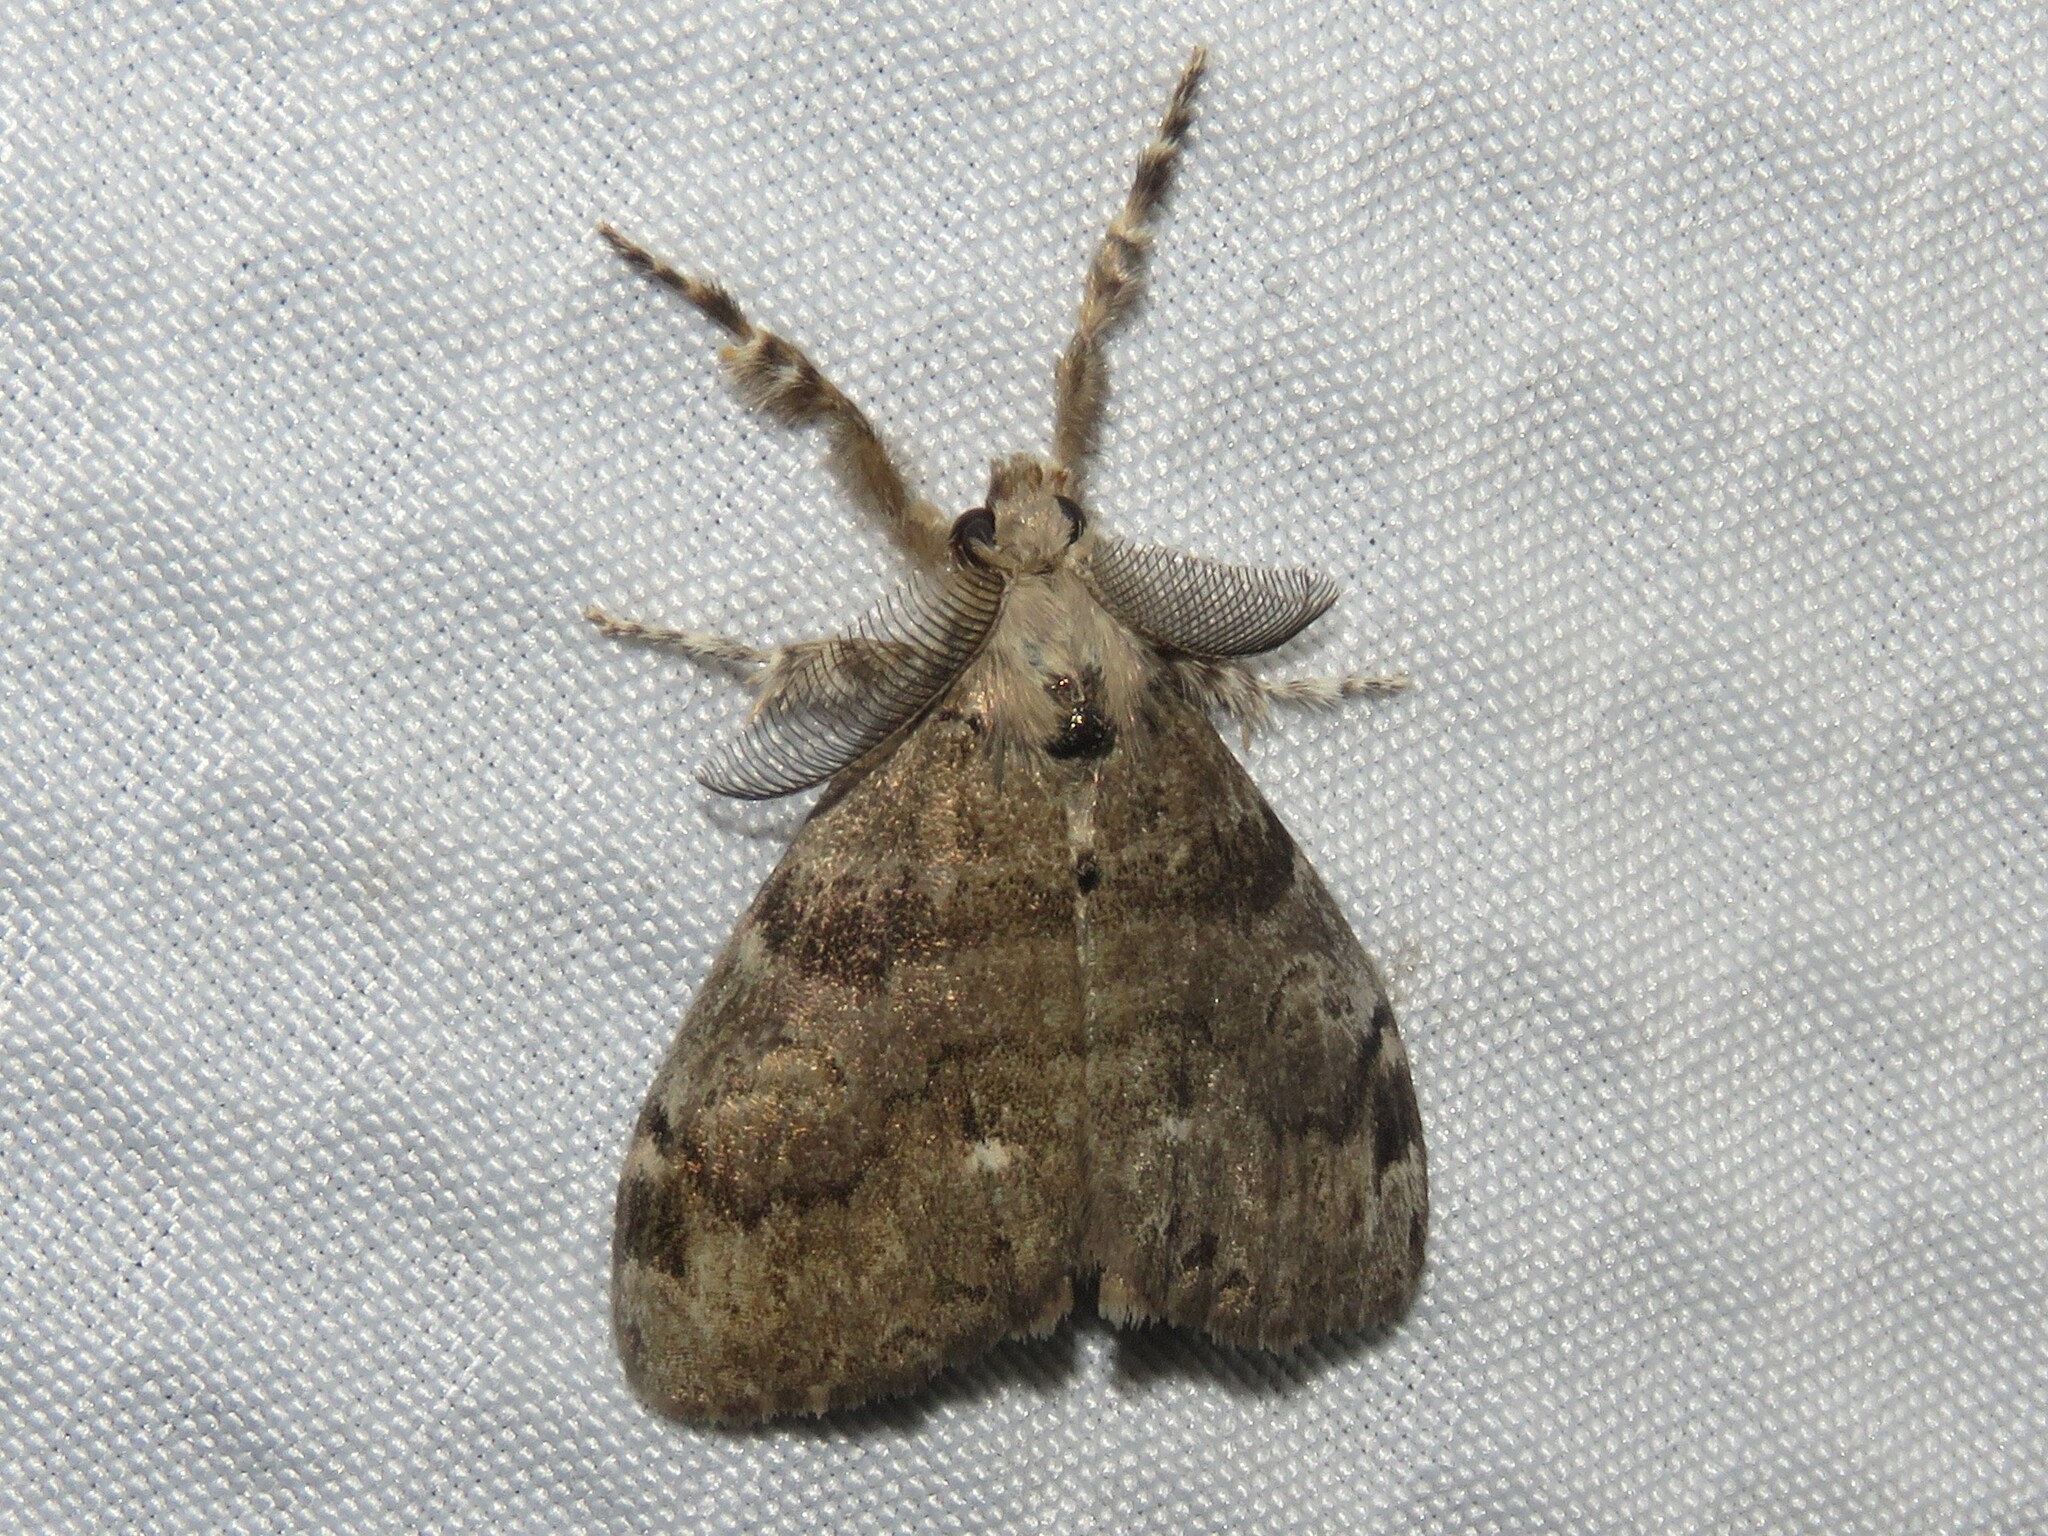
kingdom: Animalia
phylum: Arthropoda
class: Insecta
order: Lepidoptera
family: Erebidae
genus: Orgyia
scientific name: Orgyia leucostigma
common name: White-marked tussock moth
